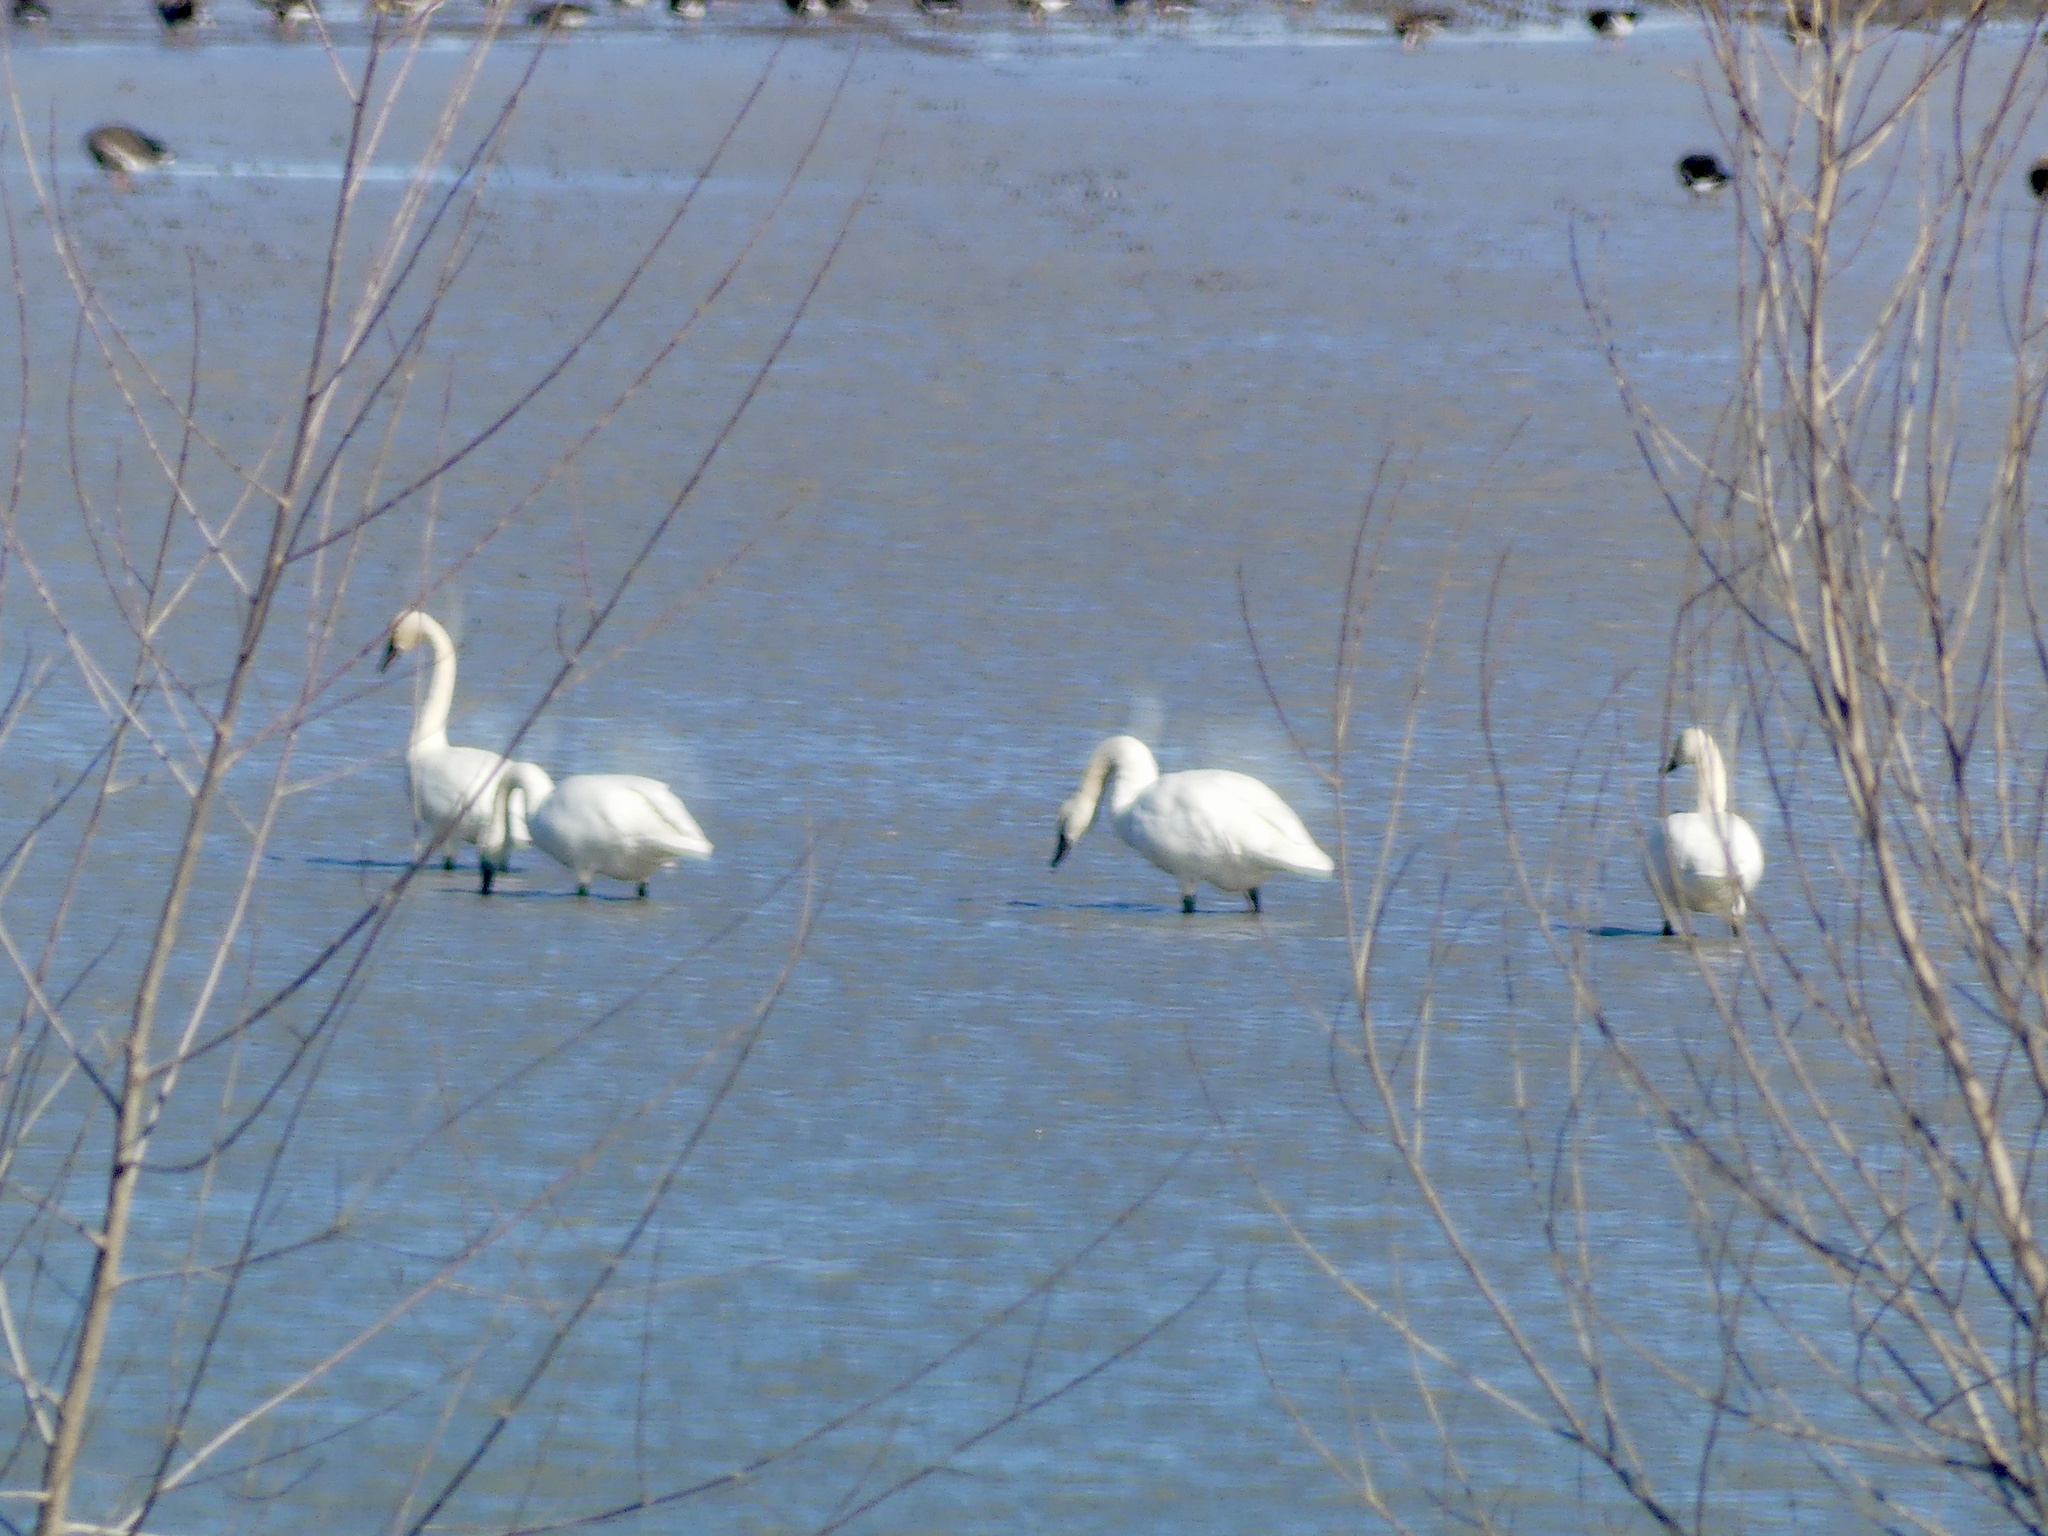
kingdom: Animalia
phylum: Chordata
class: Aves
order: Anseriformes
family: Anatidae
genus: Cygnus
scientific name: Cygnus columbianus
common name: Tundra swan
